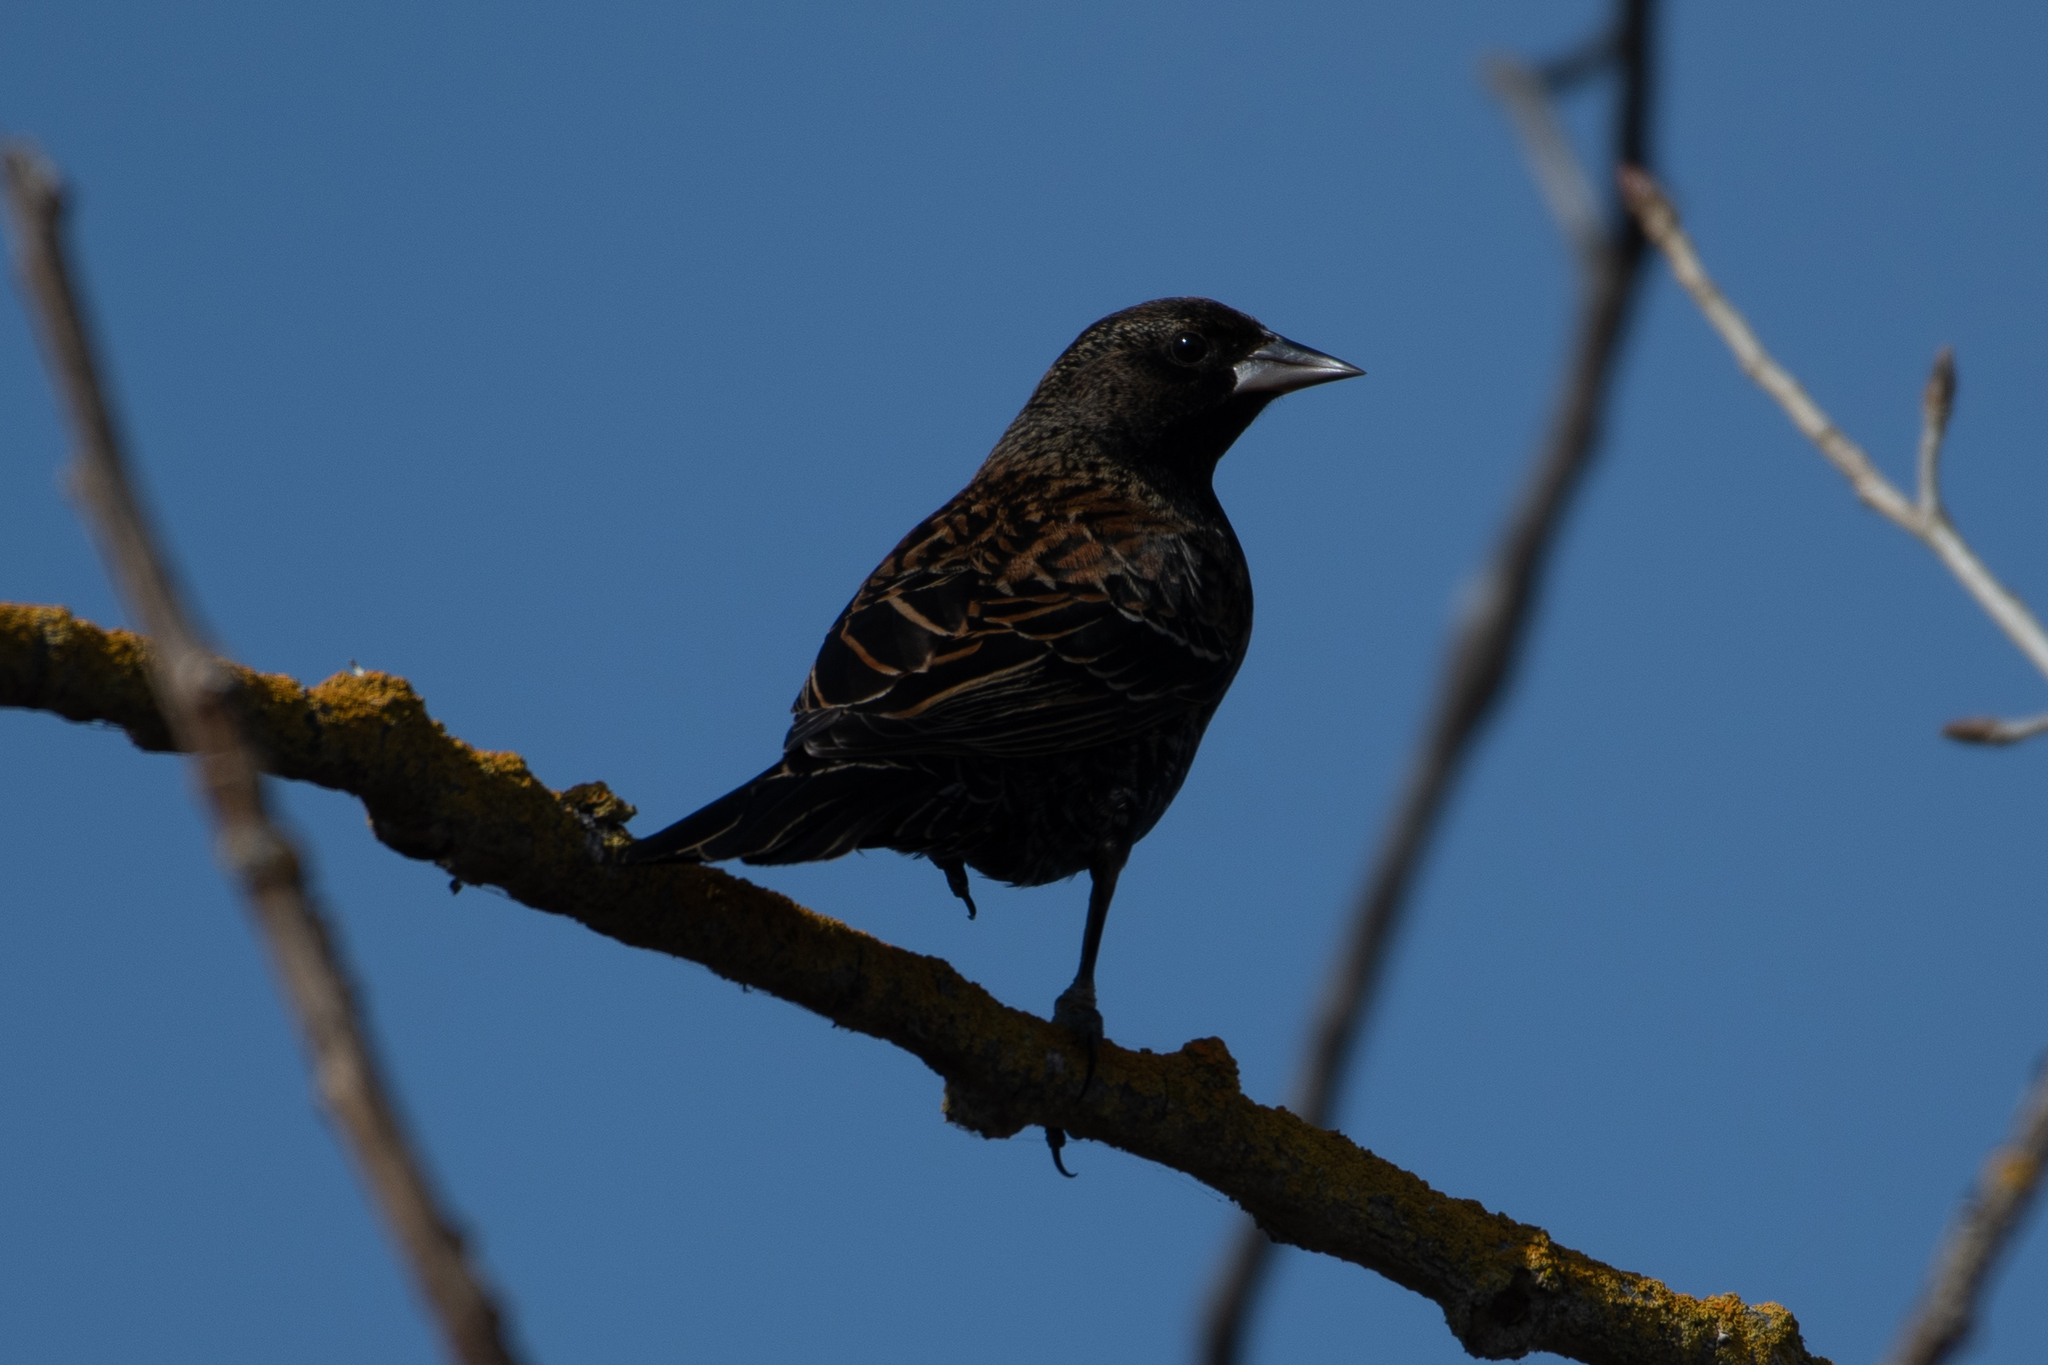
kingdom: Animalia
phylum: Chordata
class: Aves
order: Passeriformes
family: Icteridae
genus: Agelaius
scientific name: Agelaius phoeniceus
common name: Red-winged blackbird
